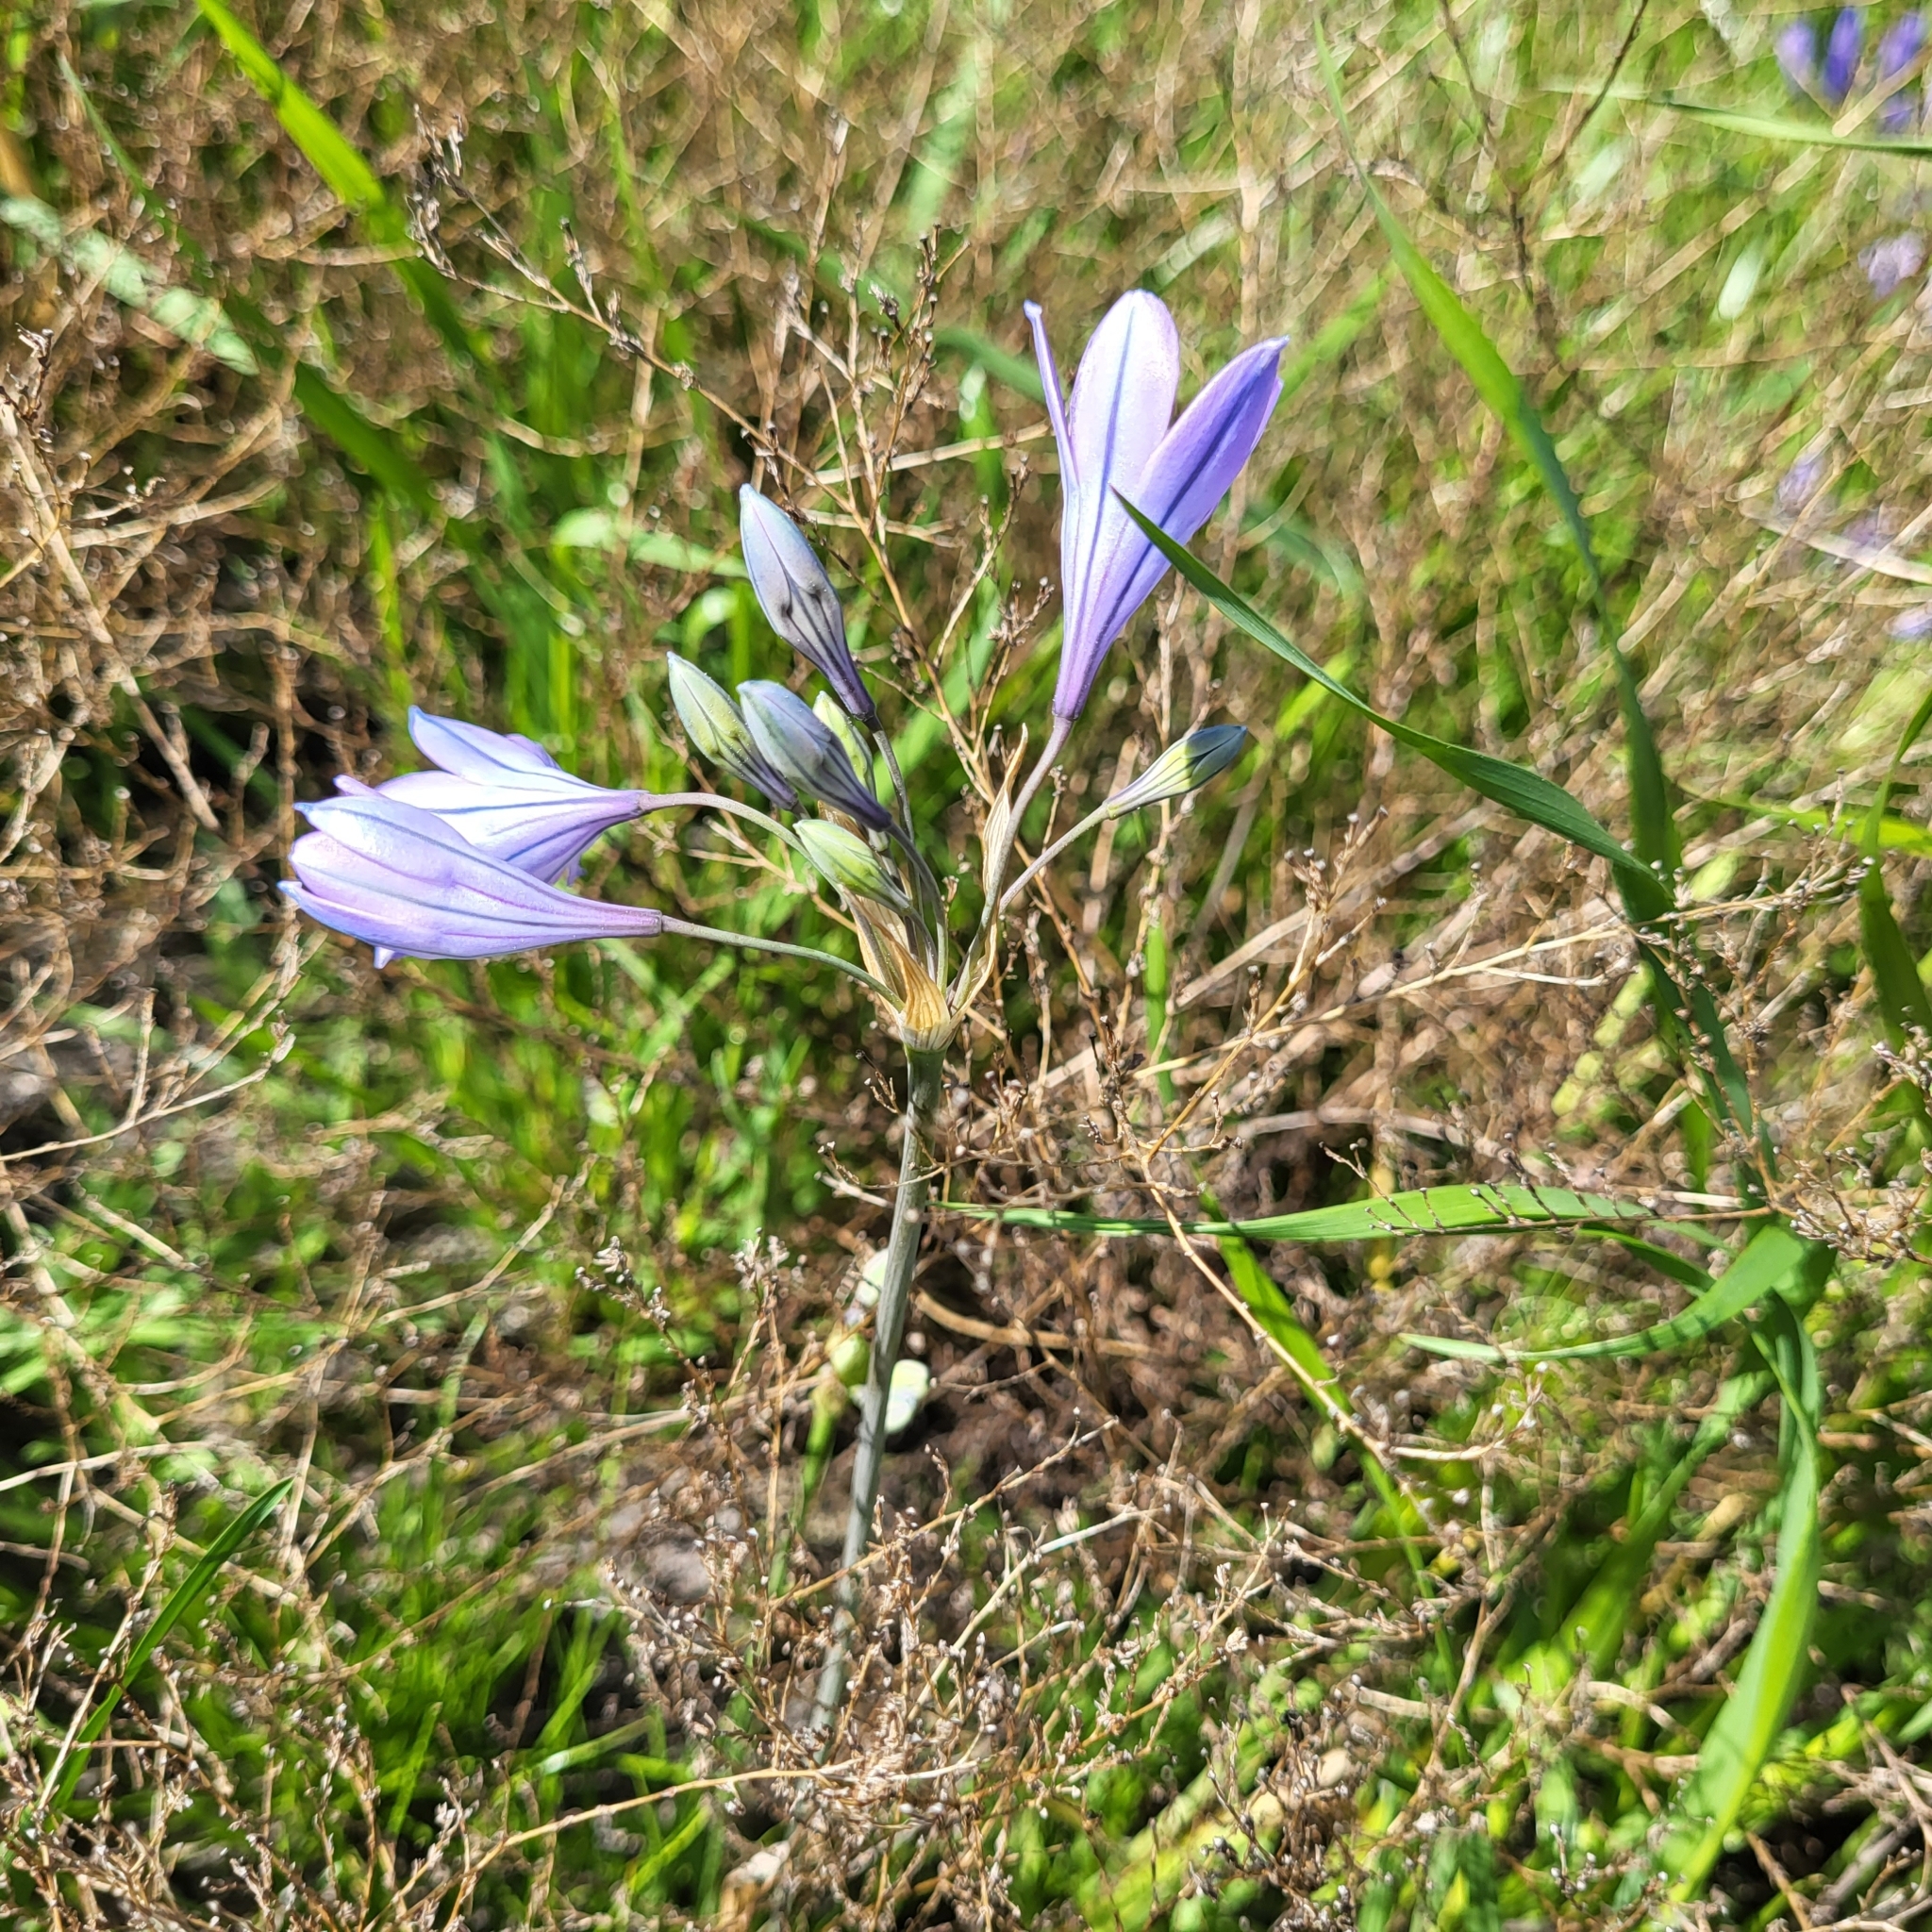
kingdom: Plantae
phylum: Tracheophyta
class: Liliopsida
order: Asparagales
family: Asparagaceae
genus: Triteleia
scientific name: Triteleia laxa
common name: Triplet-lily
